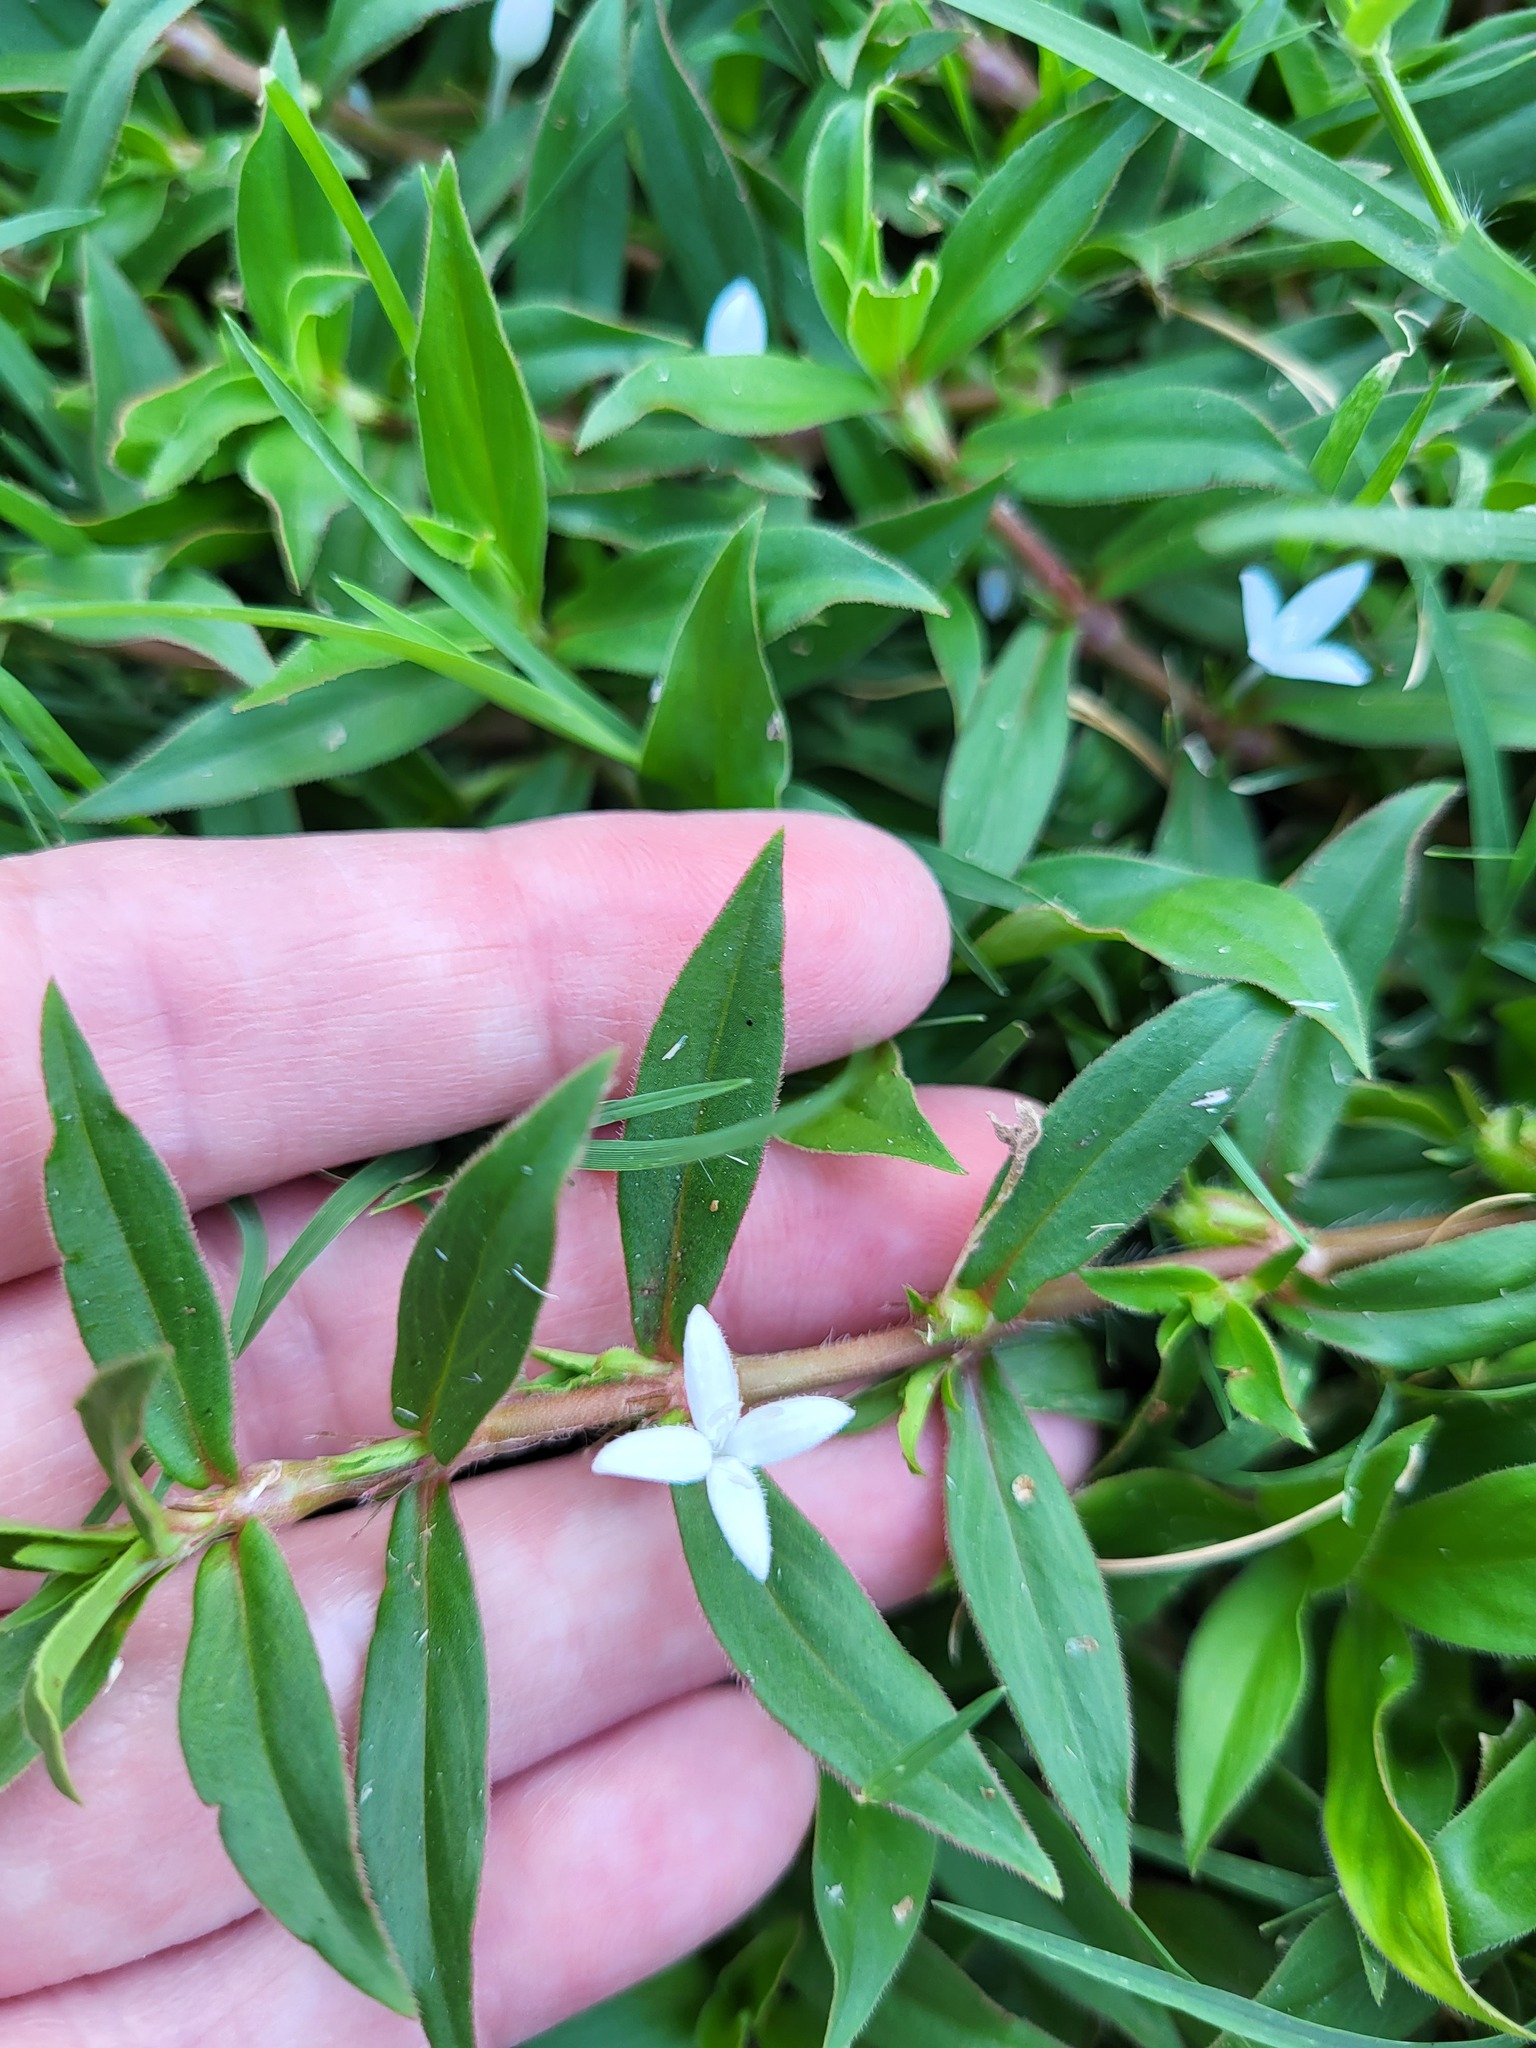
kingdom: Plantae
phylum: Tracheophyta
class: Magnoliopsida
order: Gentianales
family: Rubiaceae
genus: Diodia
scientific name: Diodia virginiana
